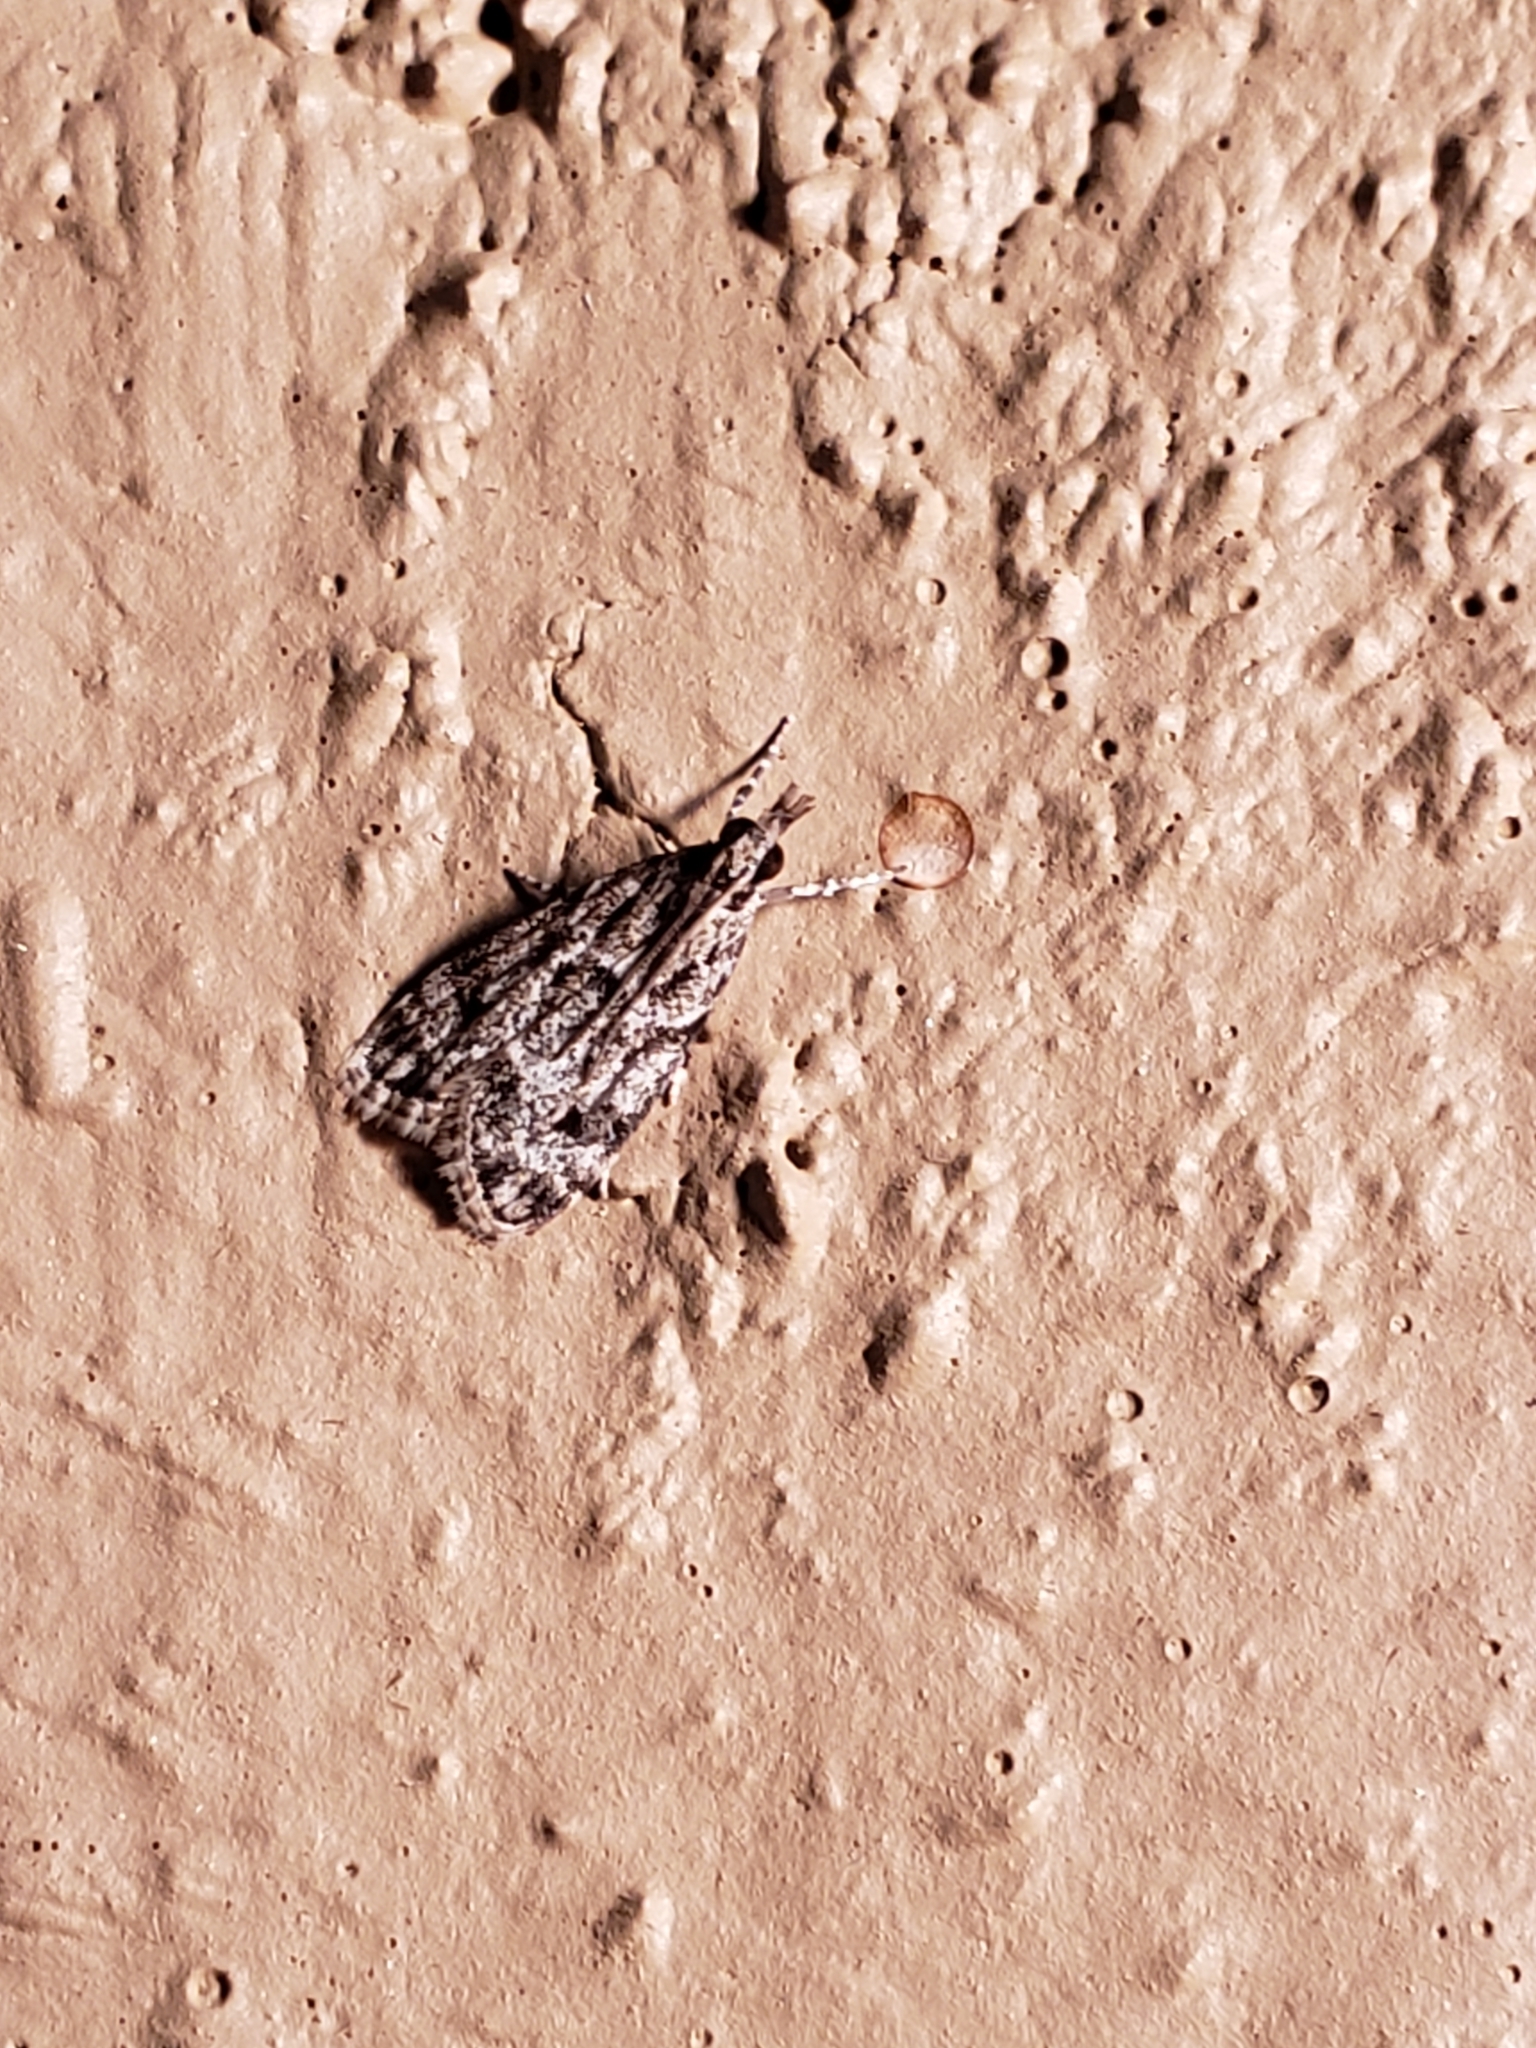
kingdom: Animalia
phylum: Arthropoda
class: Insecta
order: Lepidoptera
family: Crambidae
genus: Eudonia
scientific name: Eudonia heterosalis
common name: Mcdunnough's eudonia
